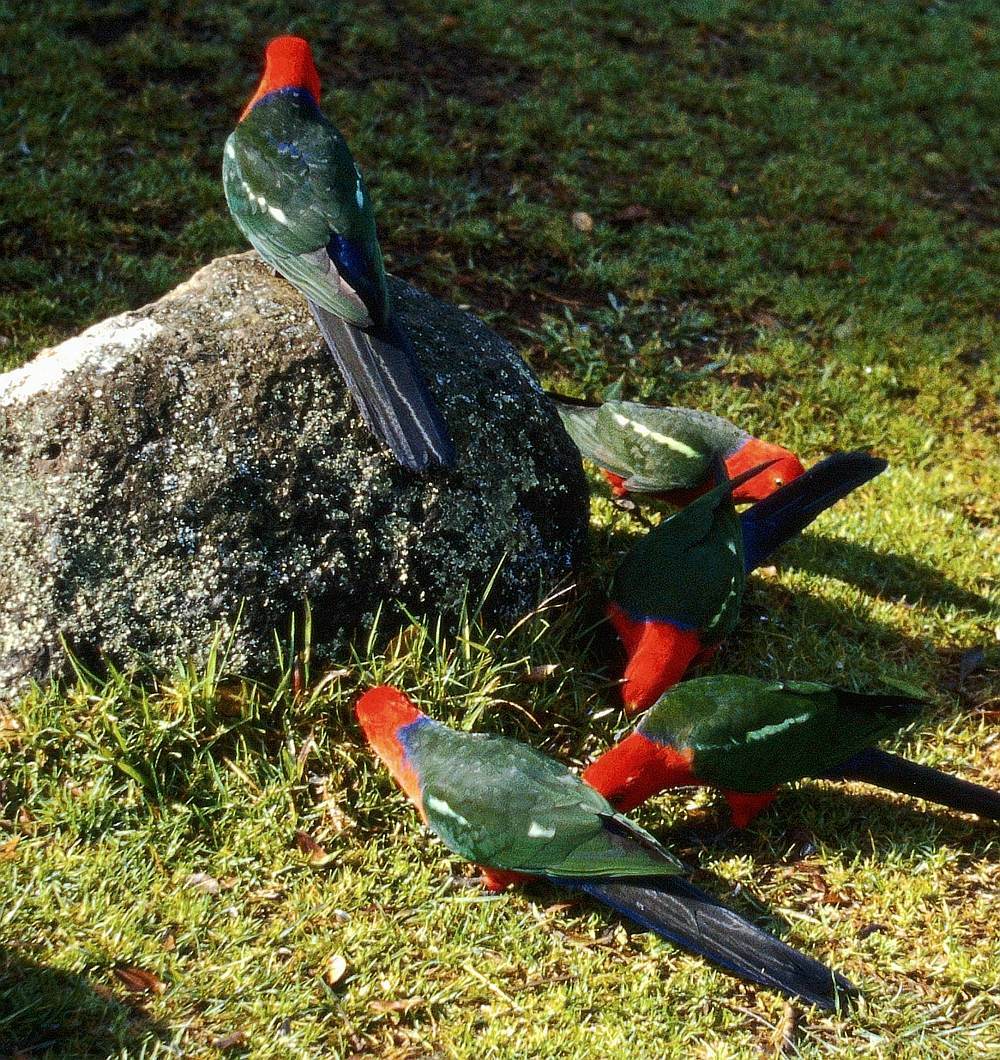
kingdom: Animalia
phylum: Chordata
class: Aves
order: Psittaciformes
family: Psittacidae
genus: Alisterus
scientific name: Alisterus scapularis
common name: Australian king parrot
